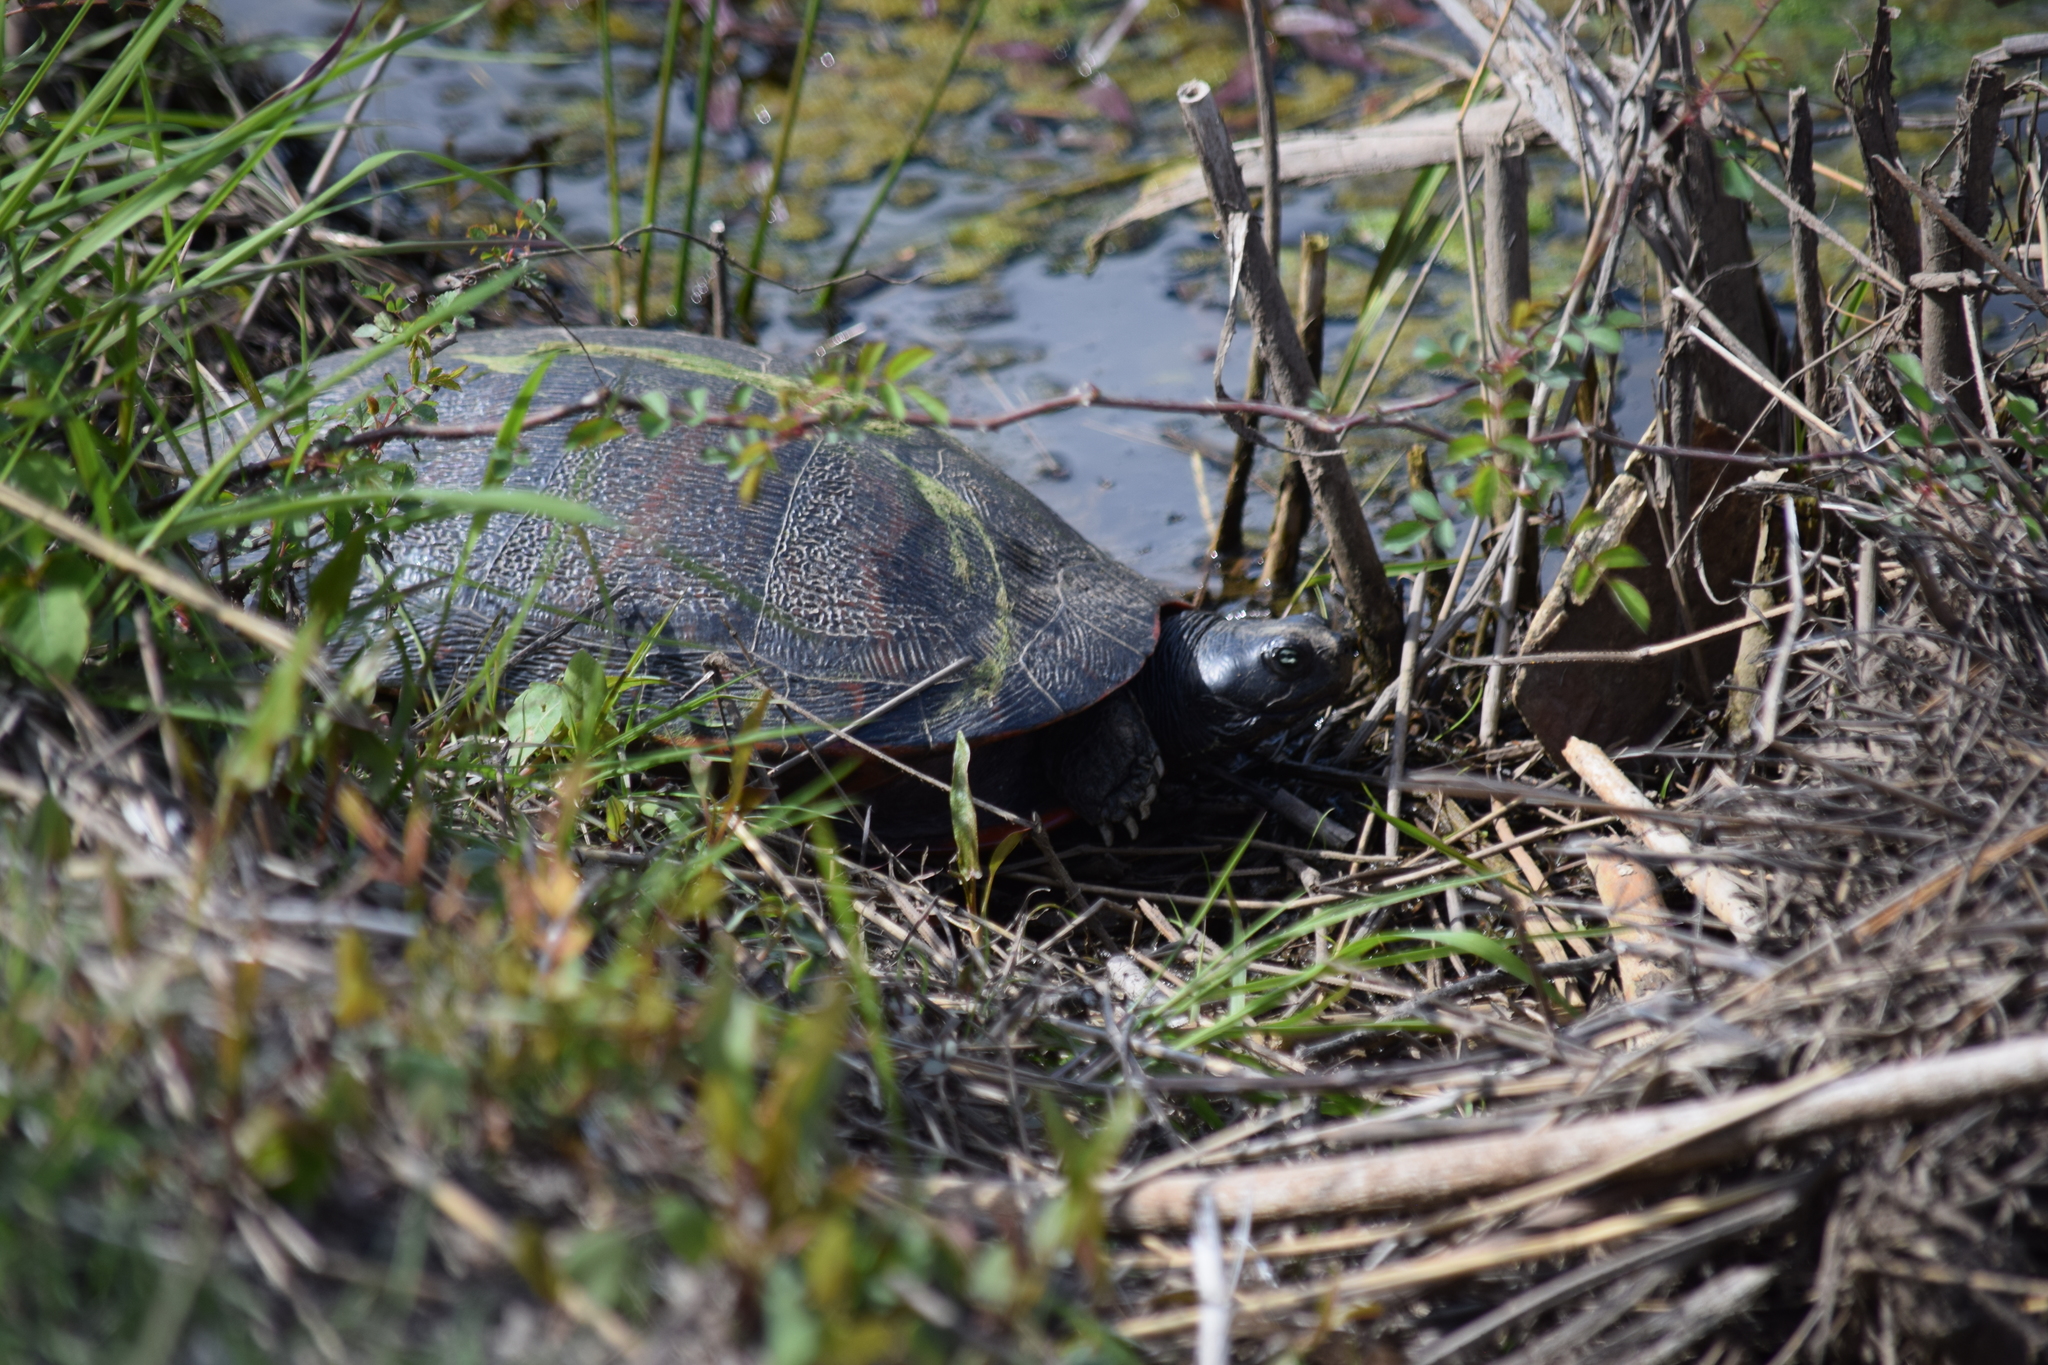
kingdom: Animalia
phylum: Chordata
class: Testudines
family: Emydidae
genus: Pseudemys
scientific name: Pseudemys rubriventris
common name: American red-bellied turtle
